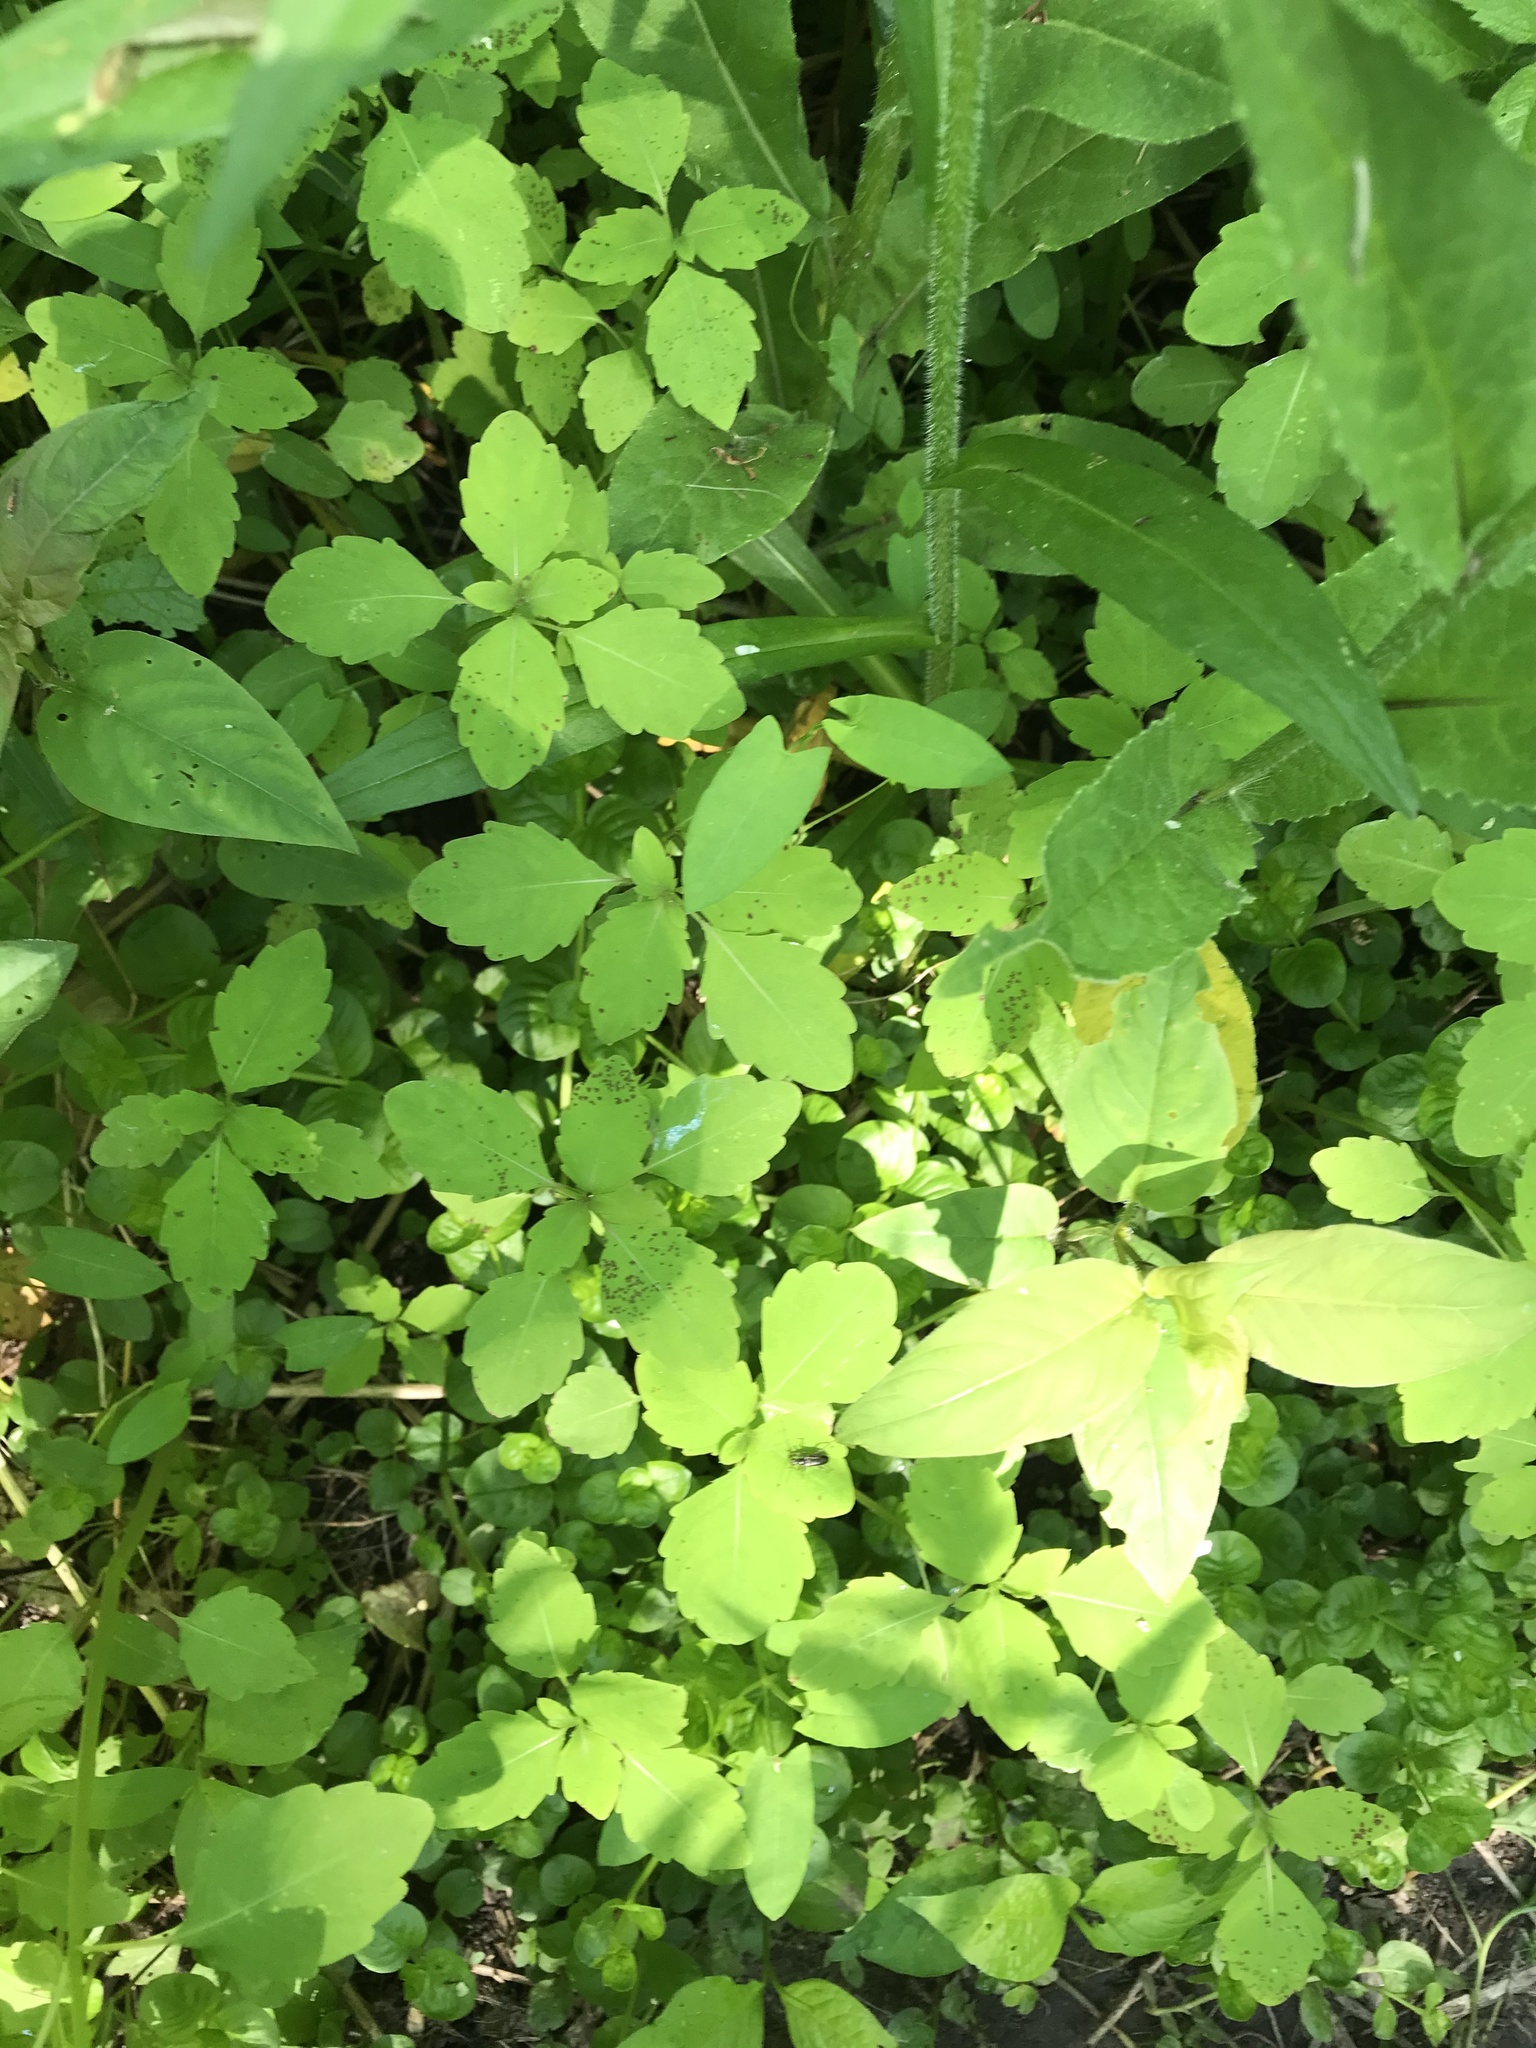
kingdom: Plantae
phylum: Tracheophyta
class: Magnoliopsida
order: Ericales
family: Balsaminaceae
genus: Impatiens
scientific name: Impatiens capensis
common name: Orange balsam
